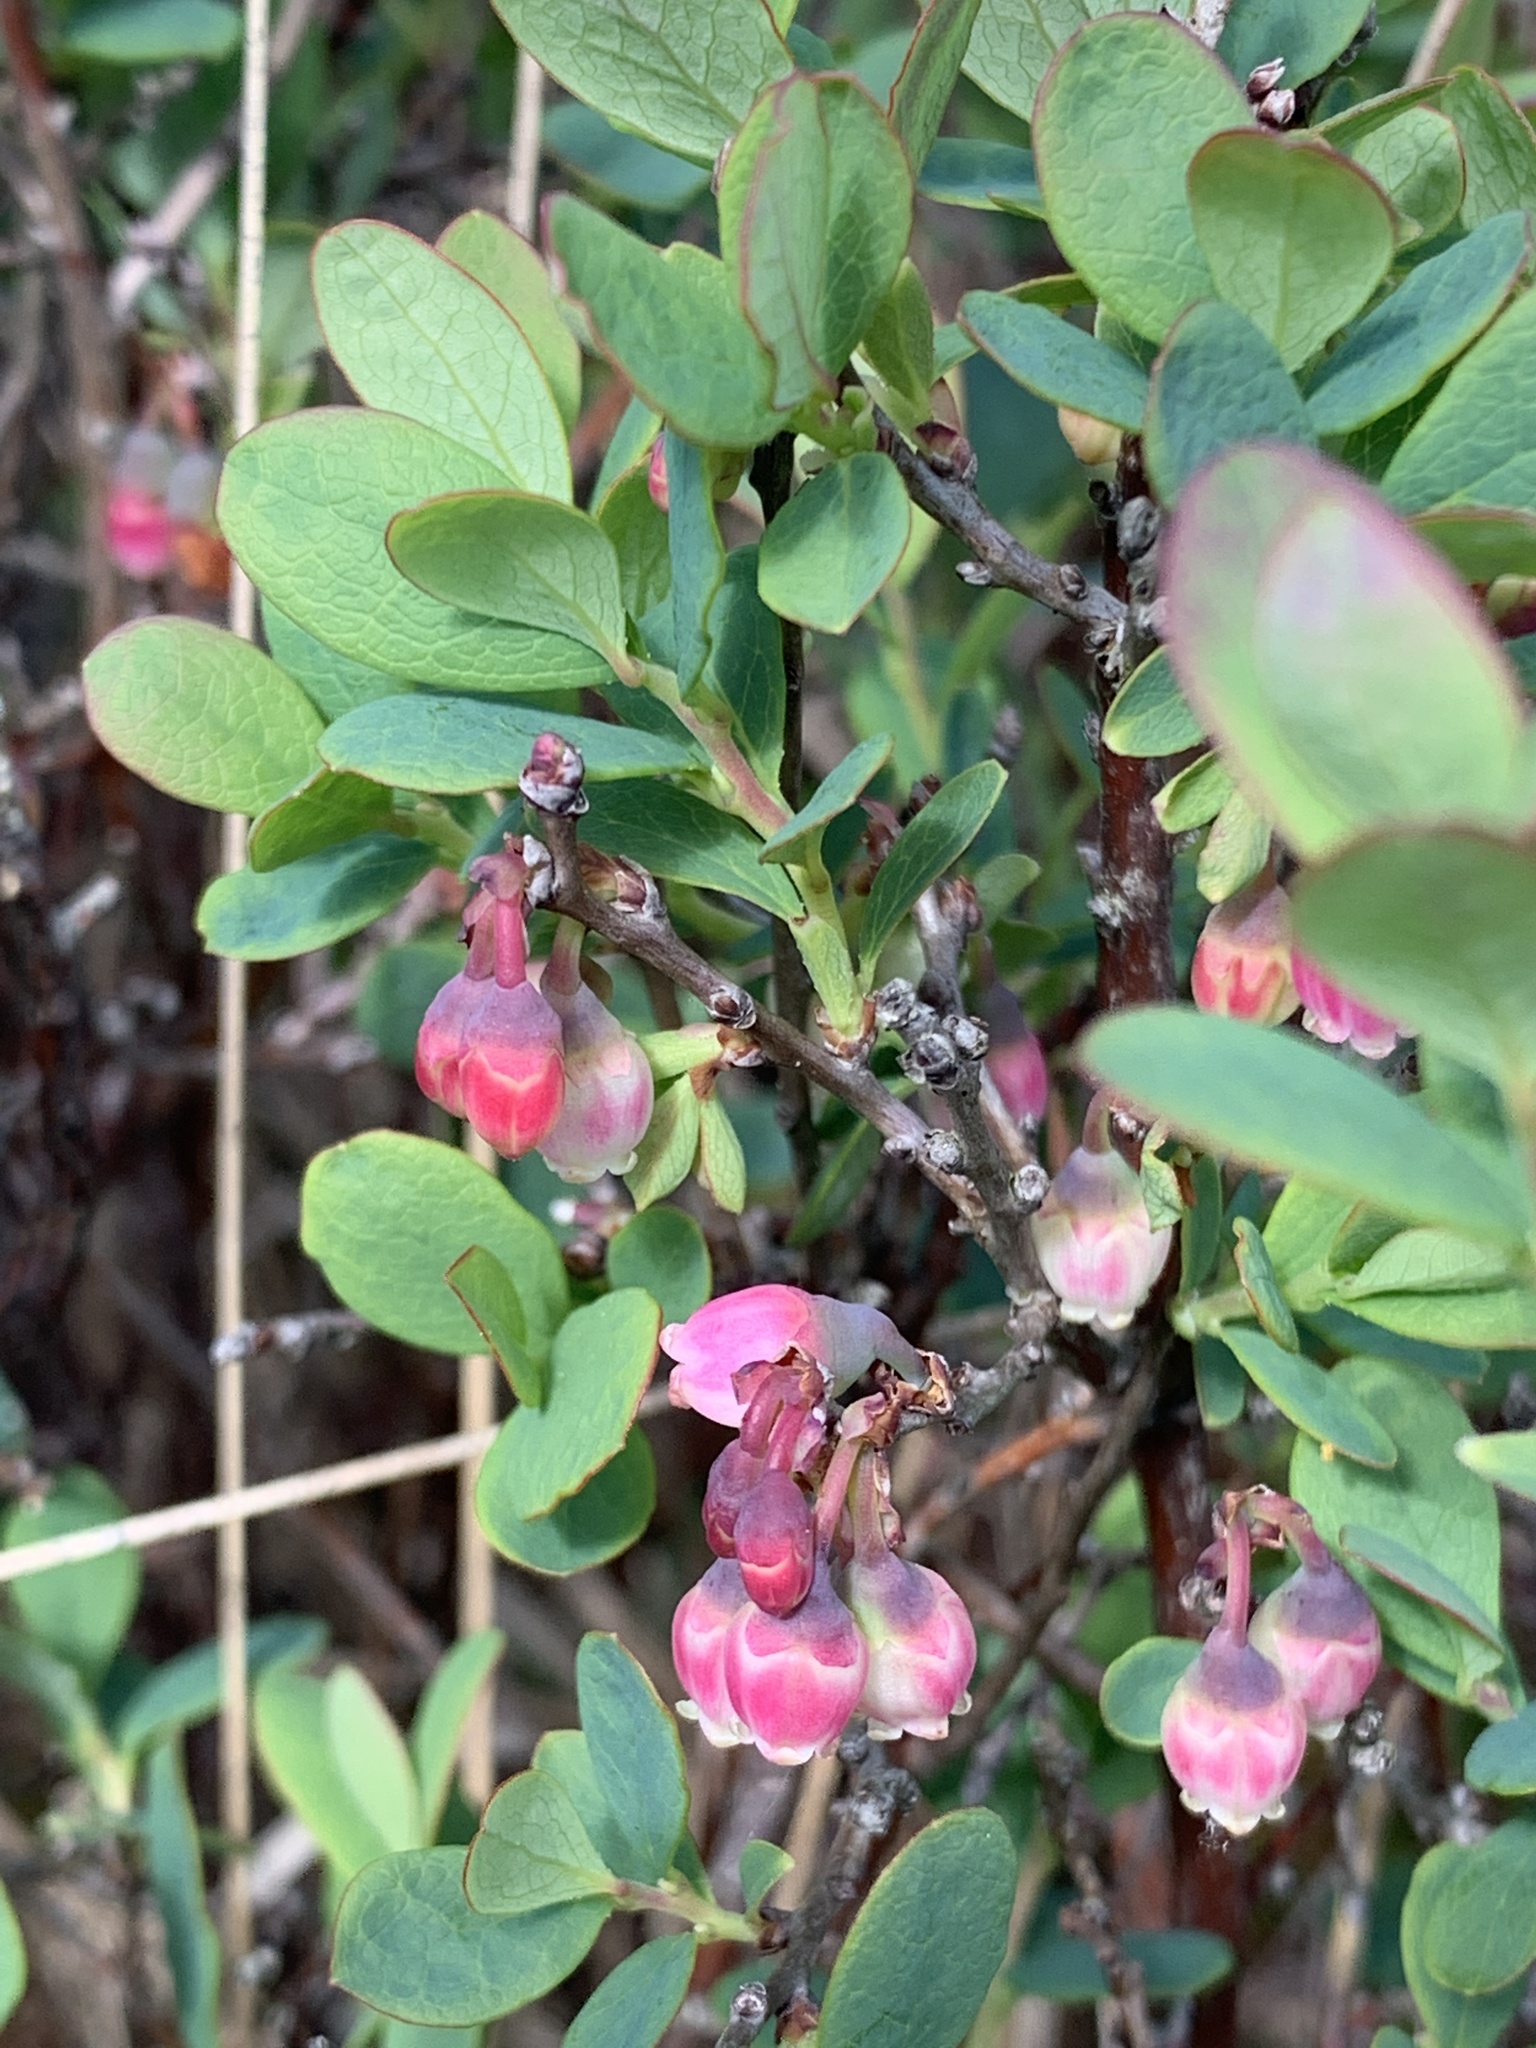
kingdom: Plantae
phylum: Tracheophyta
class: Magnoliopsida
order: Ericales
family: Ericaceae
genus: Vaccinium
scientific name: Vaccinium uliginosum
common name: Bog bilberry
